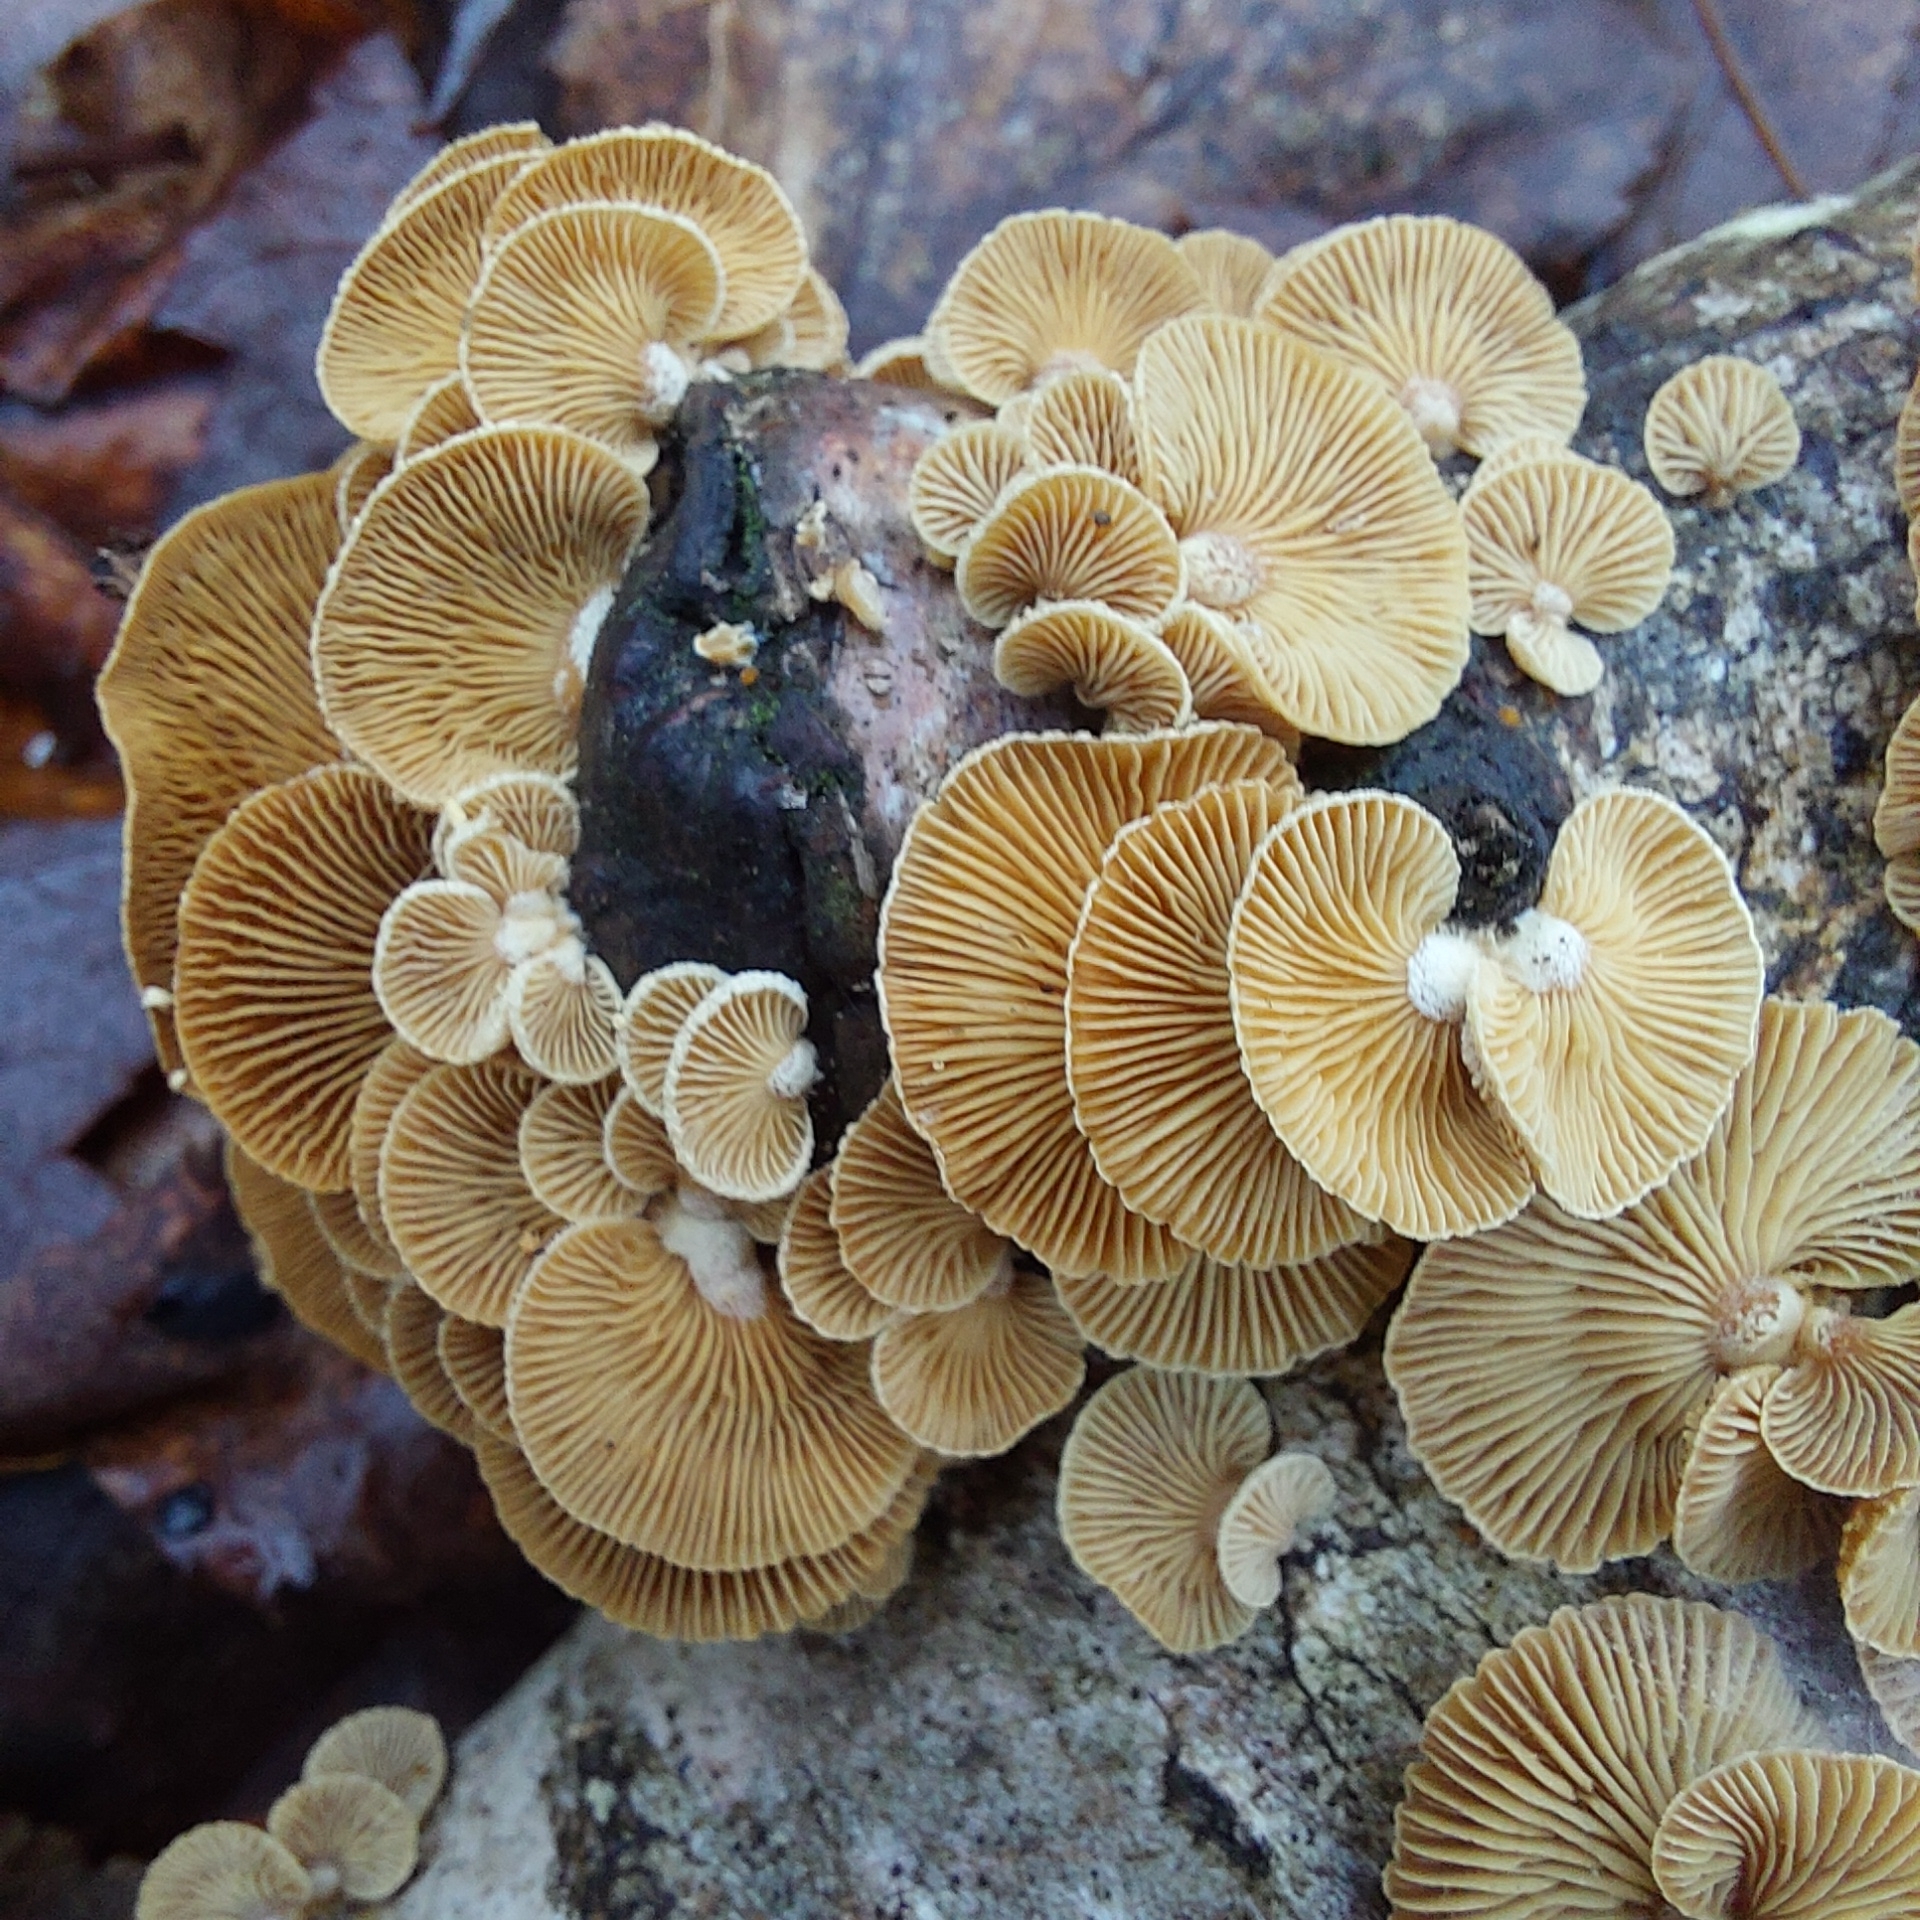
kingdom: Fungi
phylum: Basidiomycota
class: Agaricomycetes
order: Agaricales
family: Mycenaceae
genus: Panellus
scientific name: Panellus stipticus
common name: Bitter oysterling
